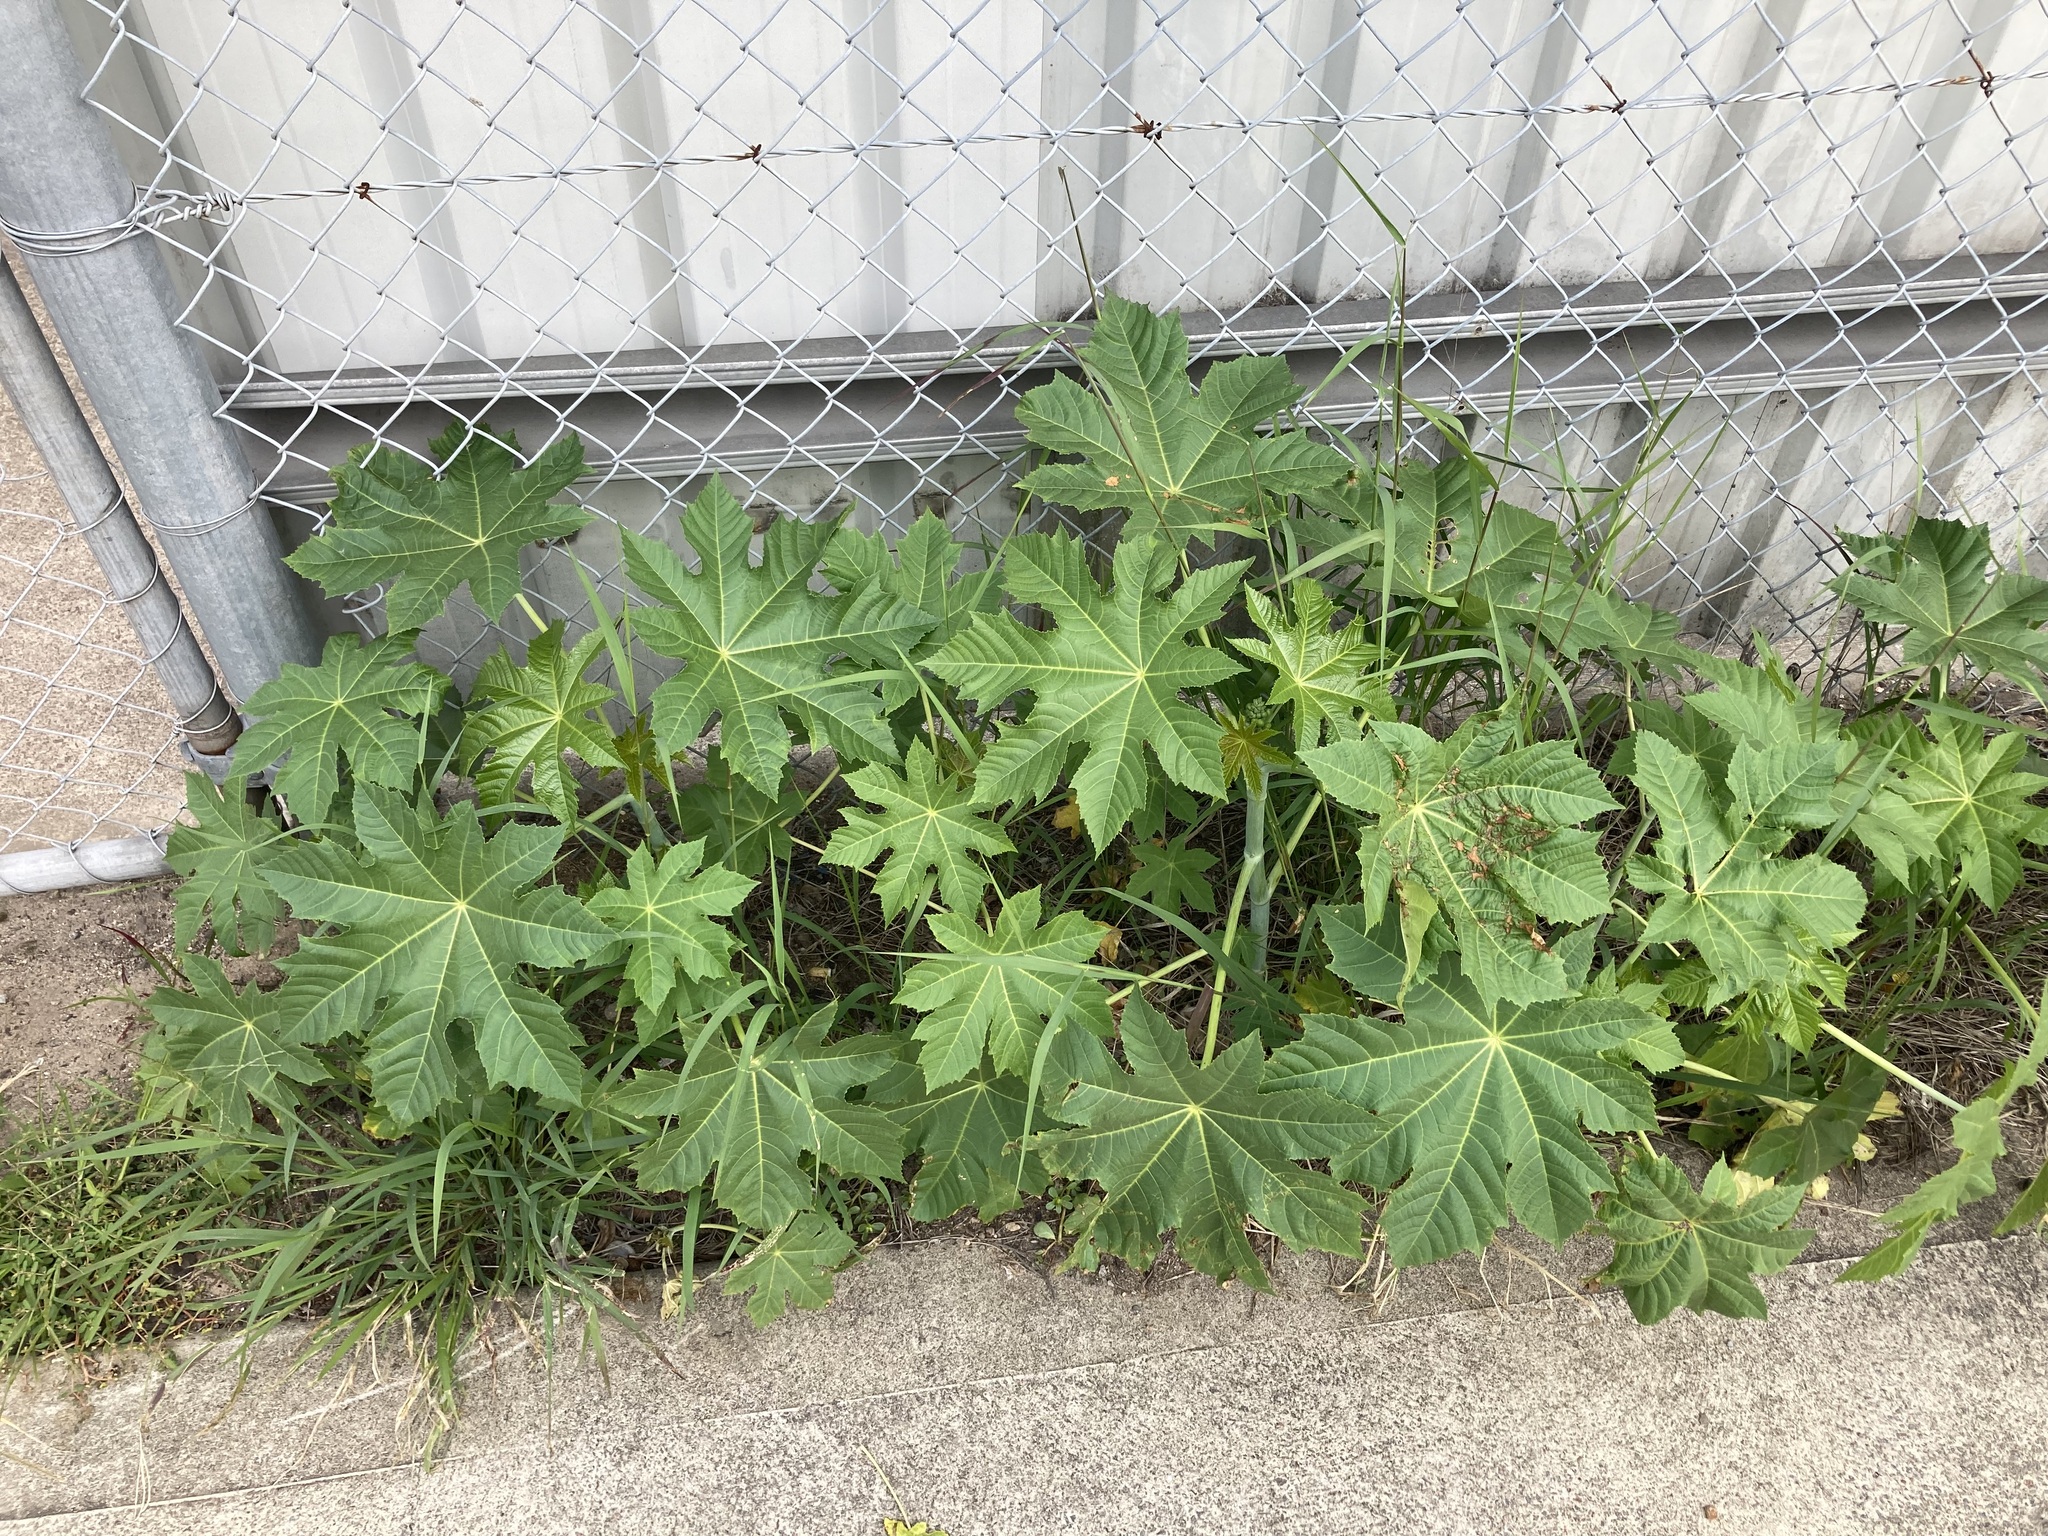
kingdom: Plantae
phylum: Tracheophyta
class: Magnoliopsida
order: Malpighiales
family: Euphorbiaceae
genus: Ricinus
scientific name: Ricinus communis
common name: Castor-oil-plant
